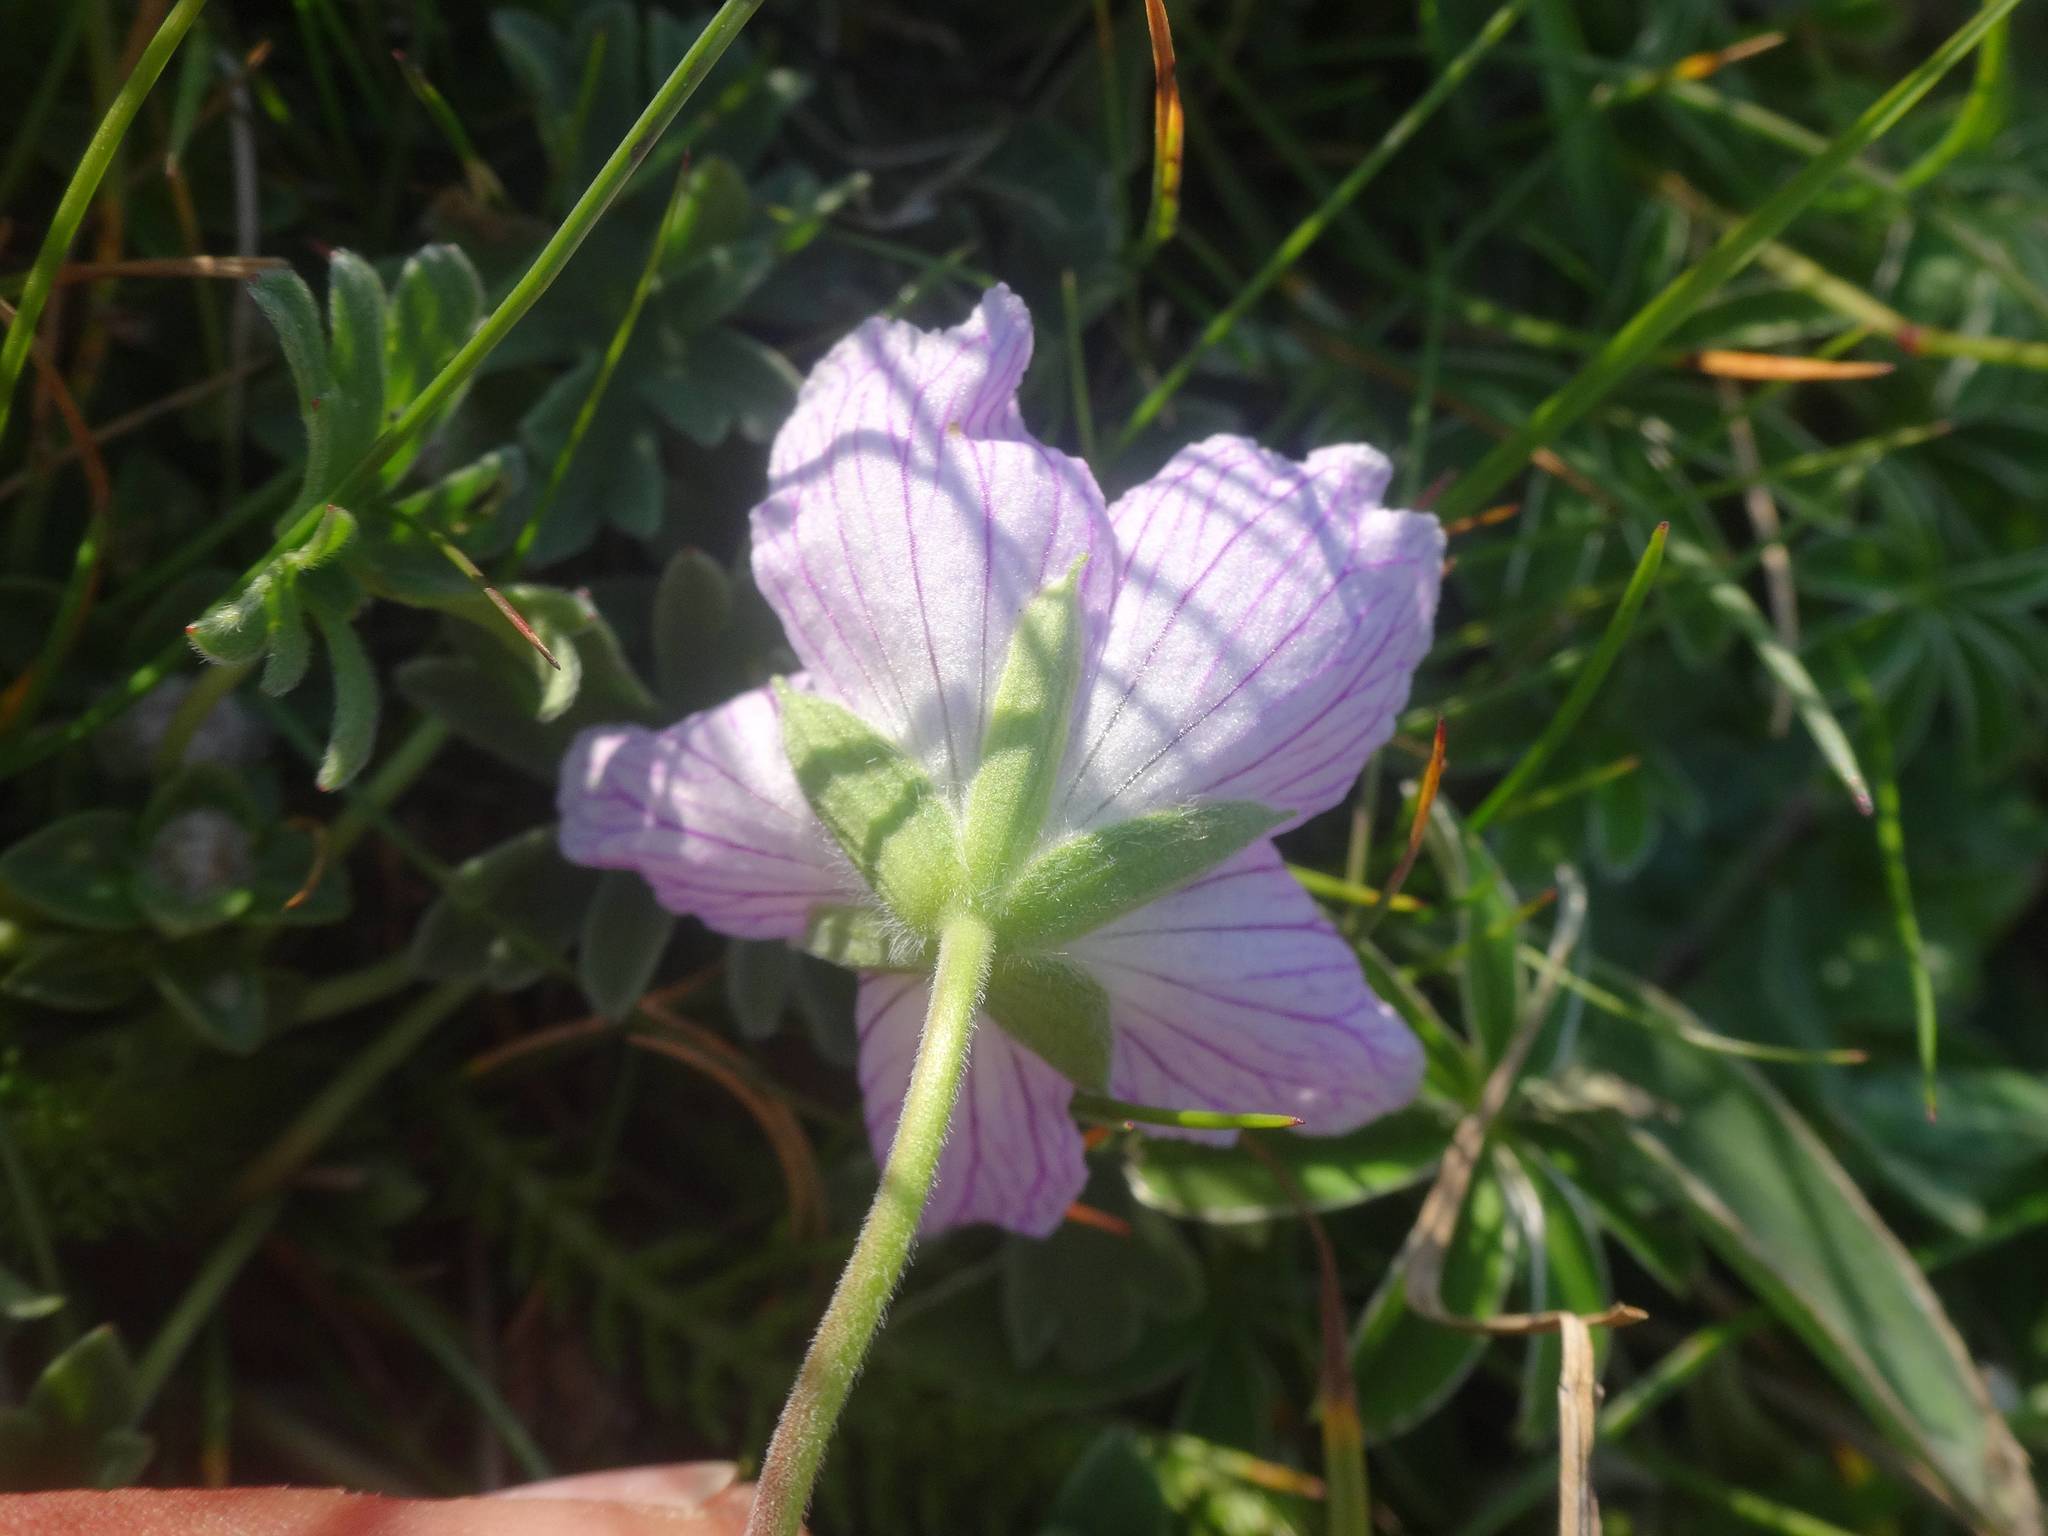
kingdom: Plantae
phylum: Tracheophyta
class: Magnoliopsida
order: Geraniales
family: Geraniaceae
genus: Geranium
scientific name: Geranium cinereum
